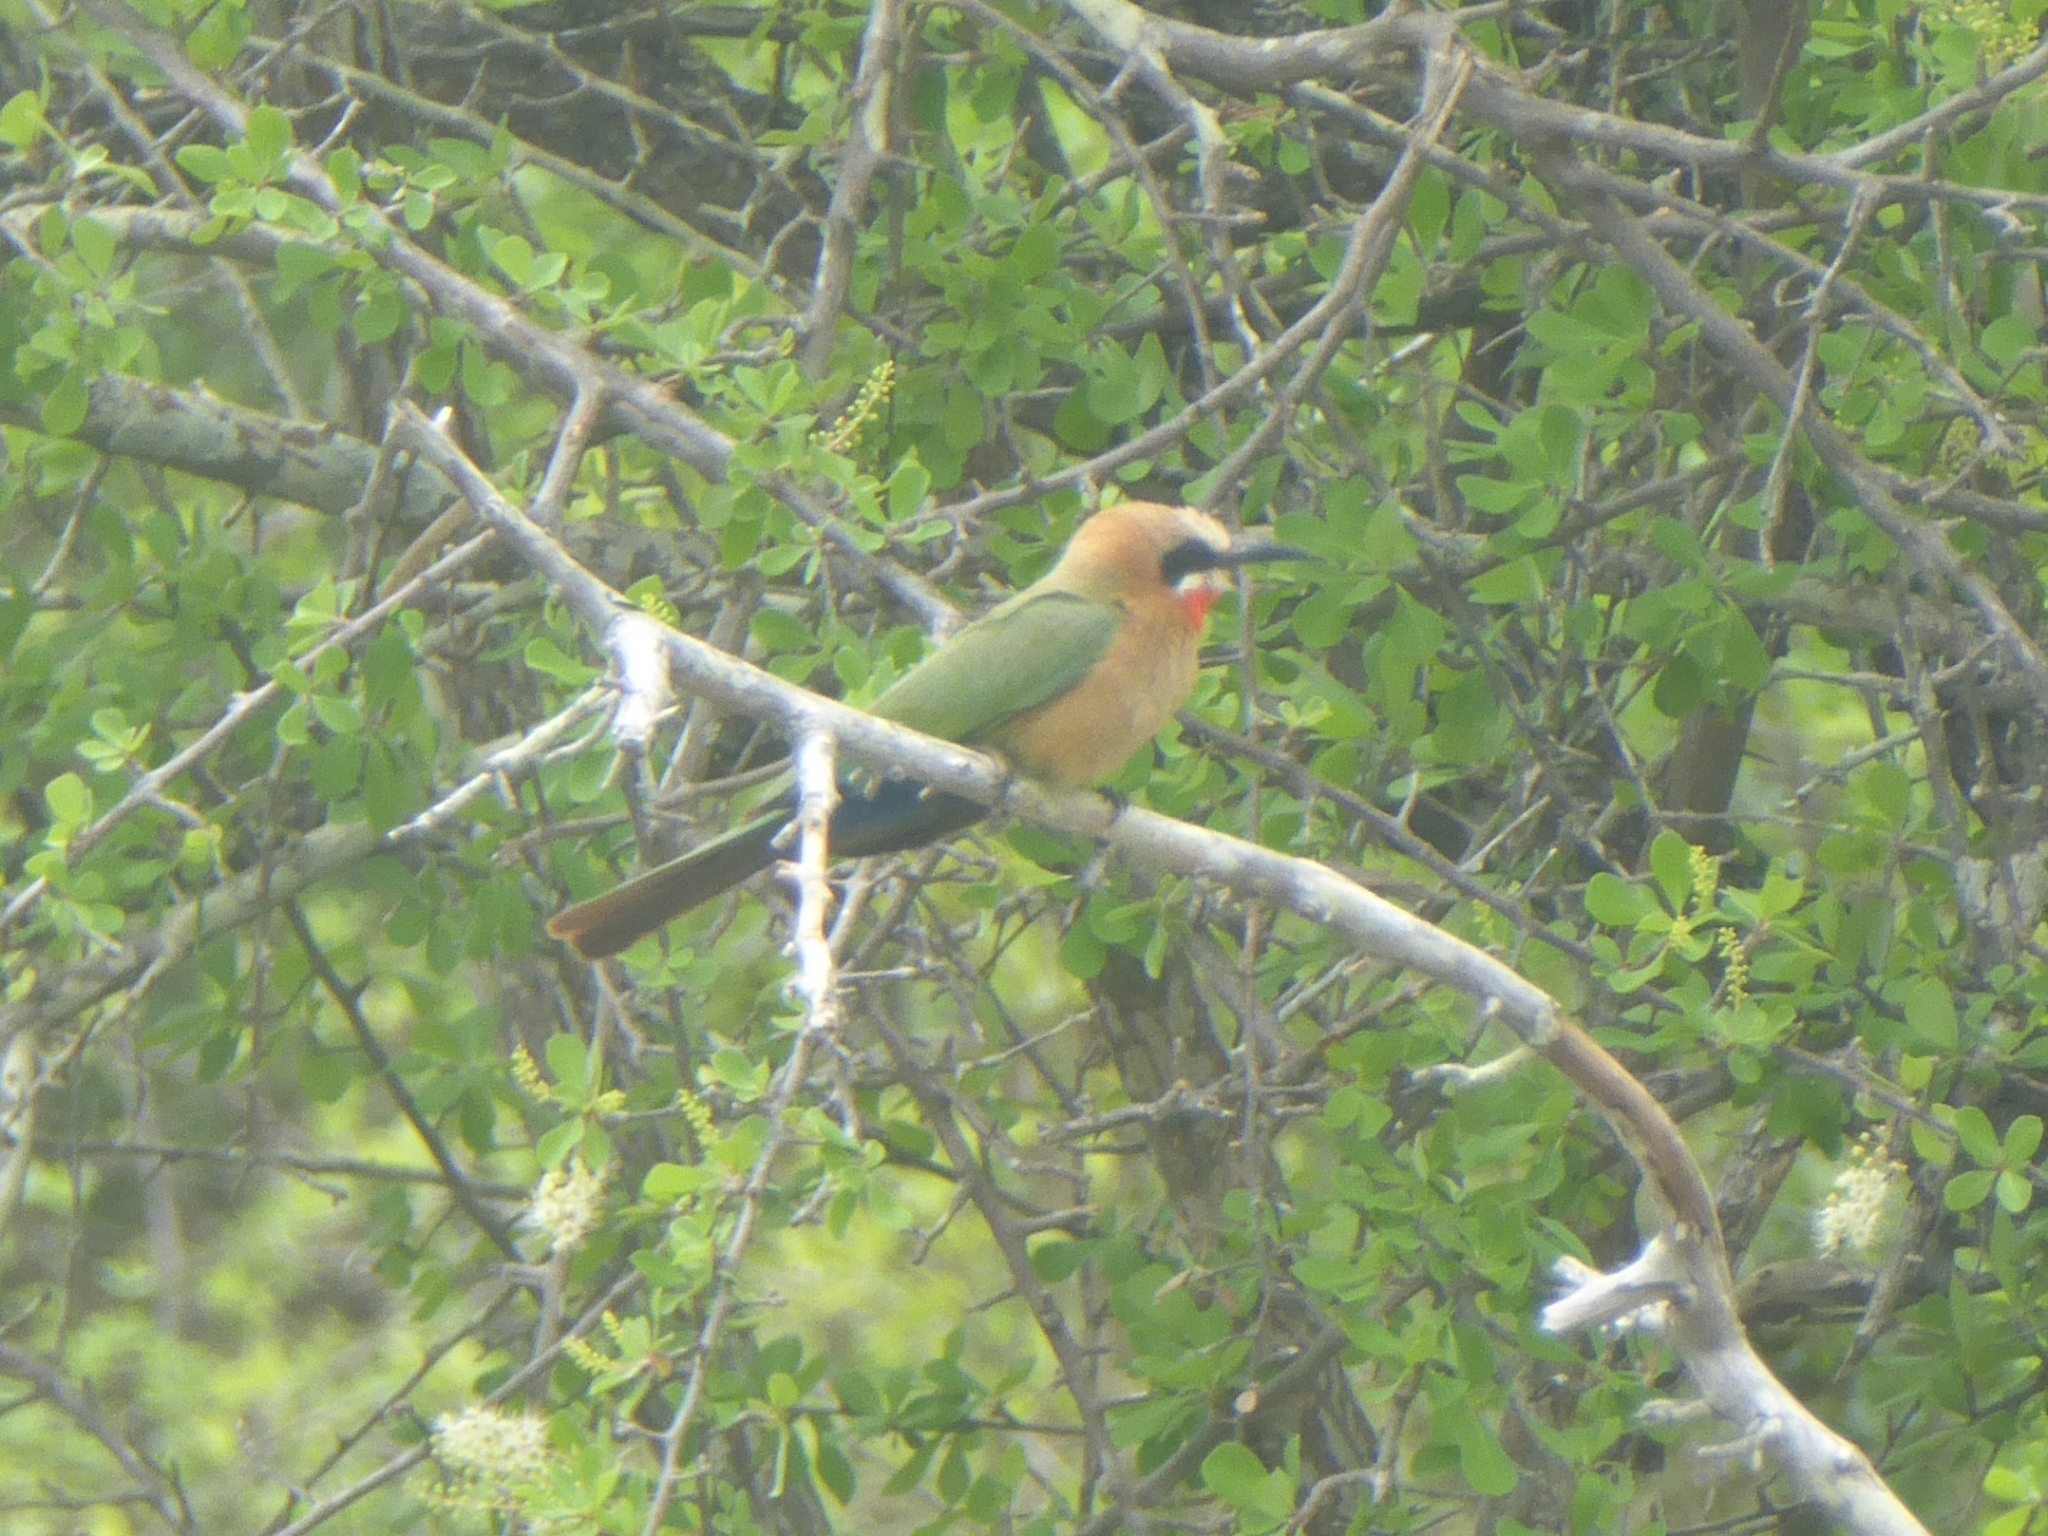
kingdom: Animalia
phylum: Chordata
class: Aves
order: Coraciiformes
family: Meropidae
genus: Merops
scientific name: Merops bullockoides
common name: White-fronted bee-eater
